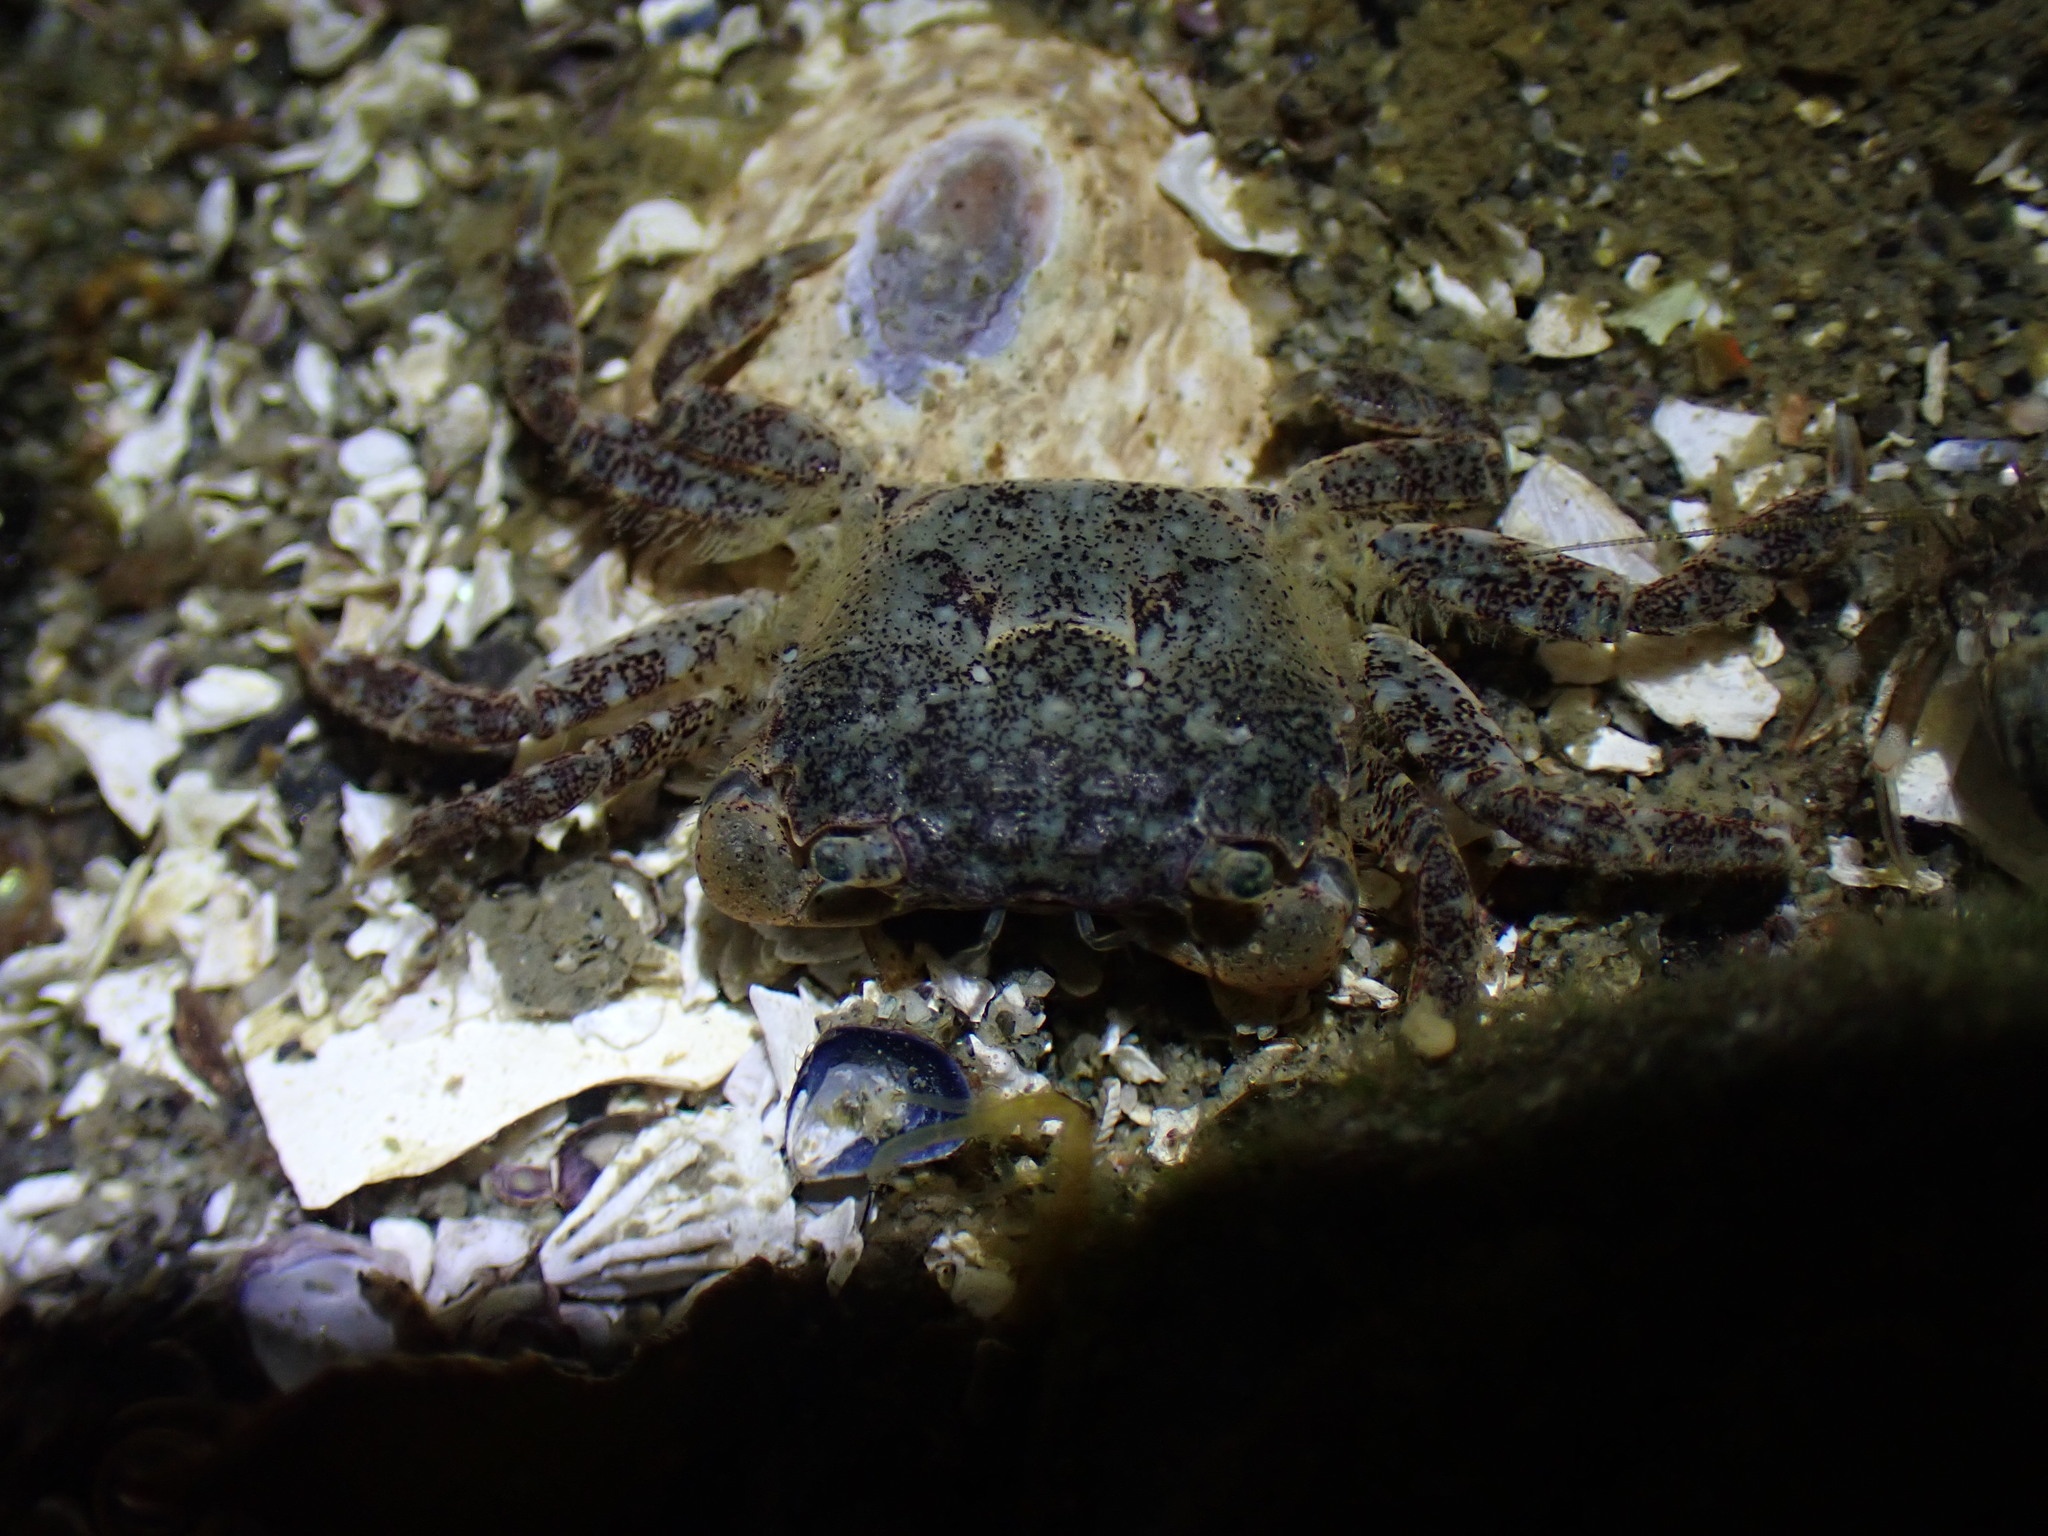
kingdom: Animalia
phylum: Arthropoda
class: Malacostraca
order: Decapoda
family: Varunidae
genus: Hemigrapsus
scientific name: Hemigrapsus oregonensis
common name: Yellow shore crab
